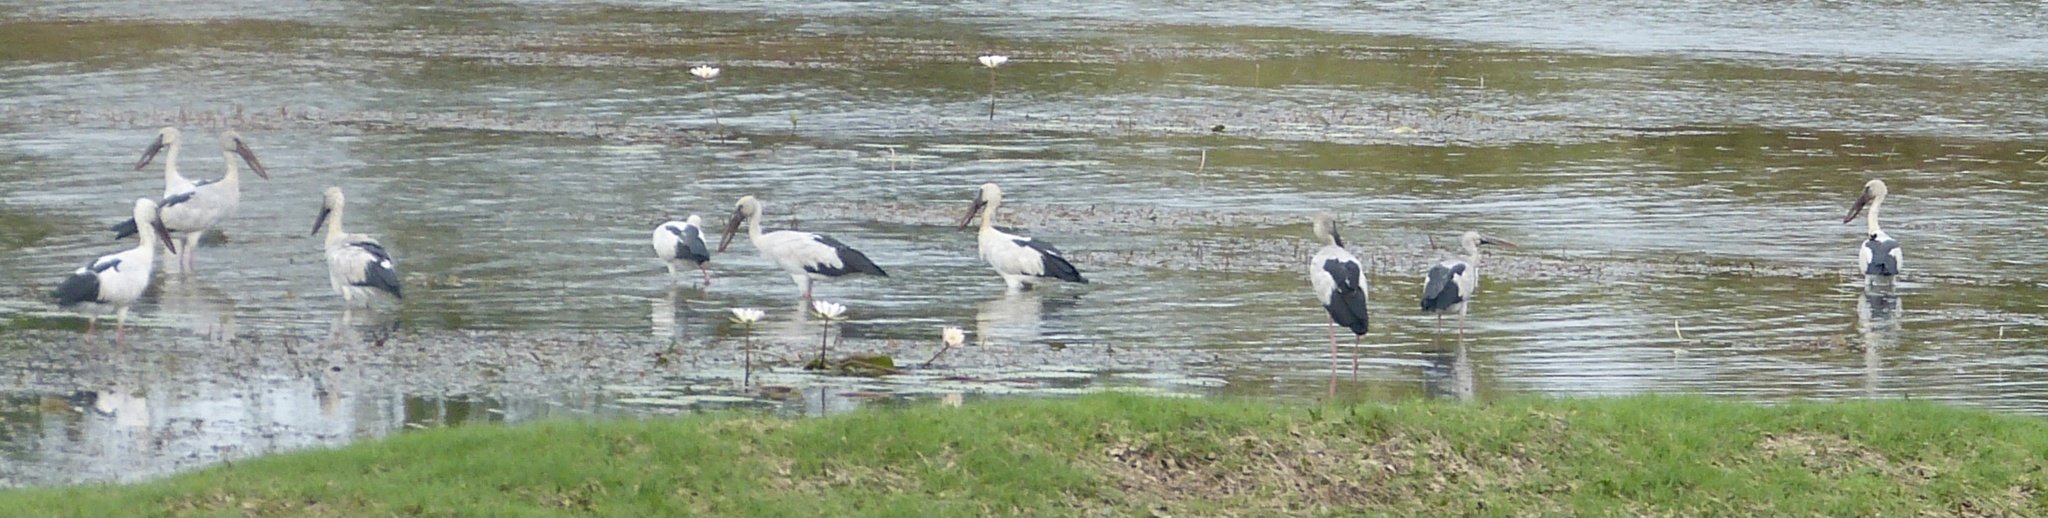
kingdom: Animalia
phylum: Chordata
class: Aves
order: Ciconiiformes
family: Ciconiidae
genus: Anastomus
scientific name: Anastomus oscitans
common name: Asian openbill
